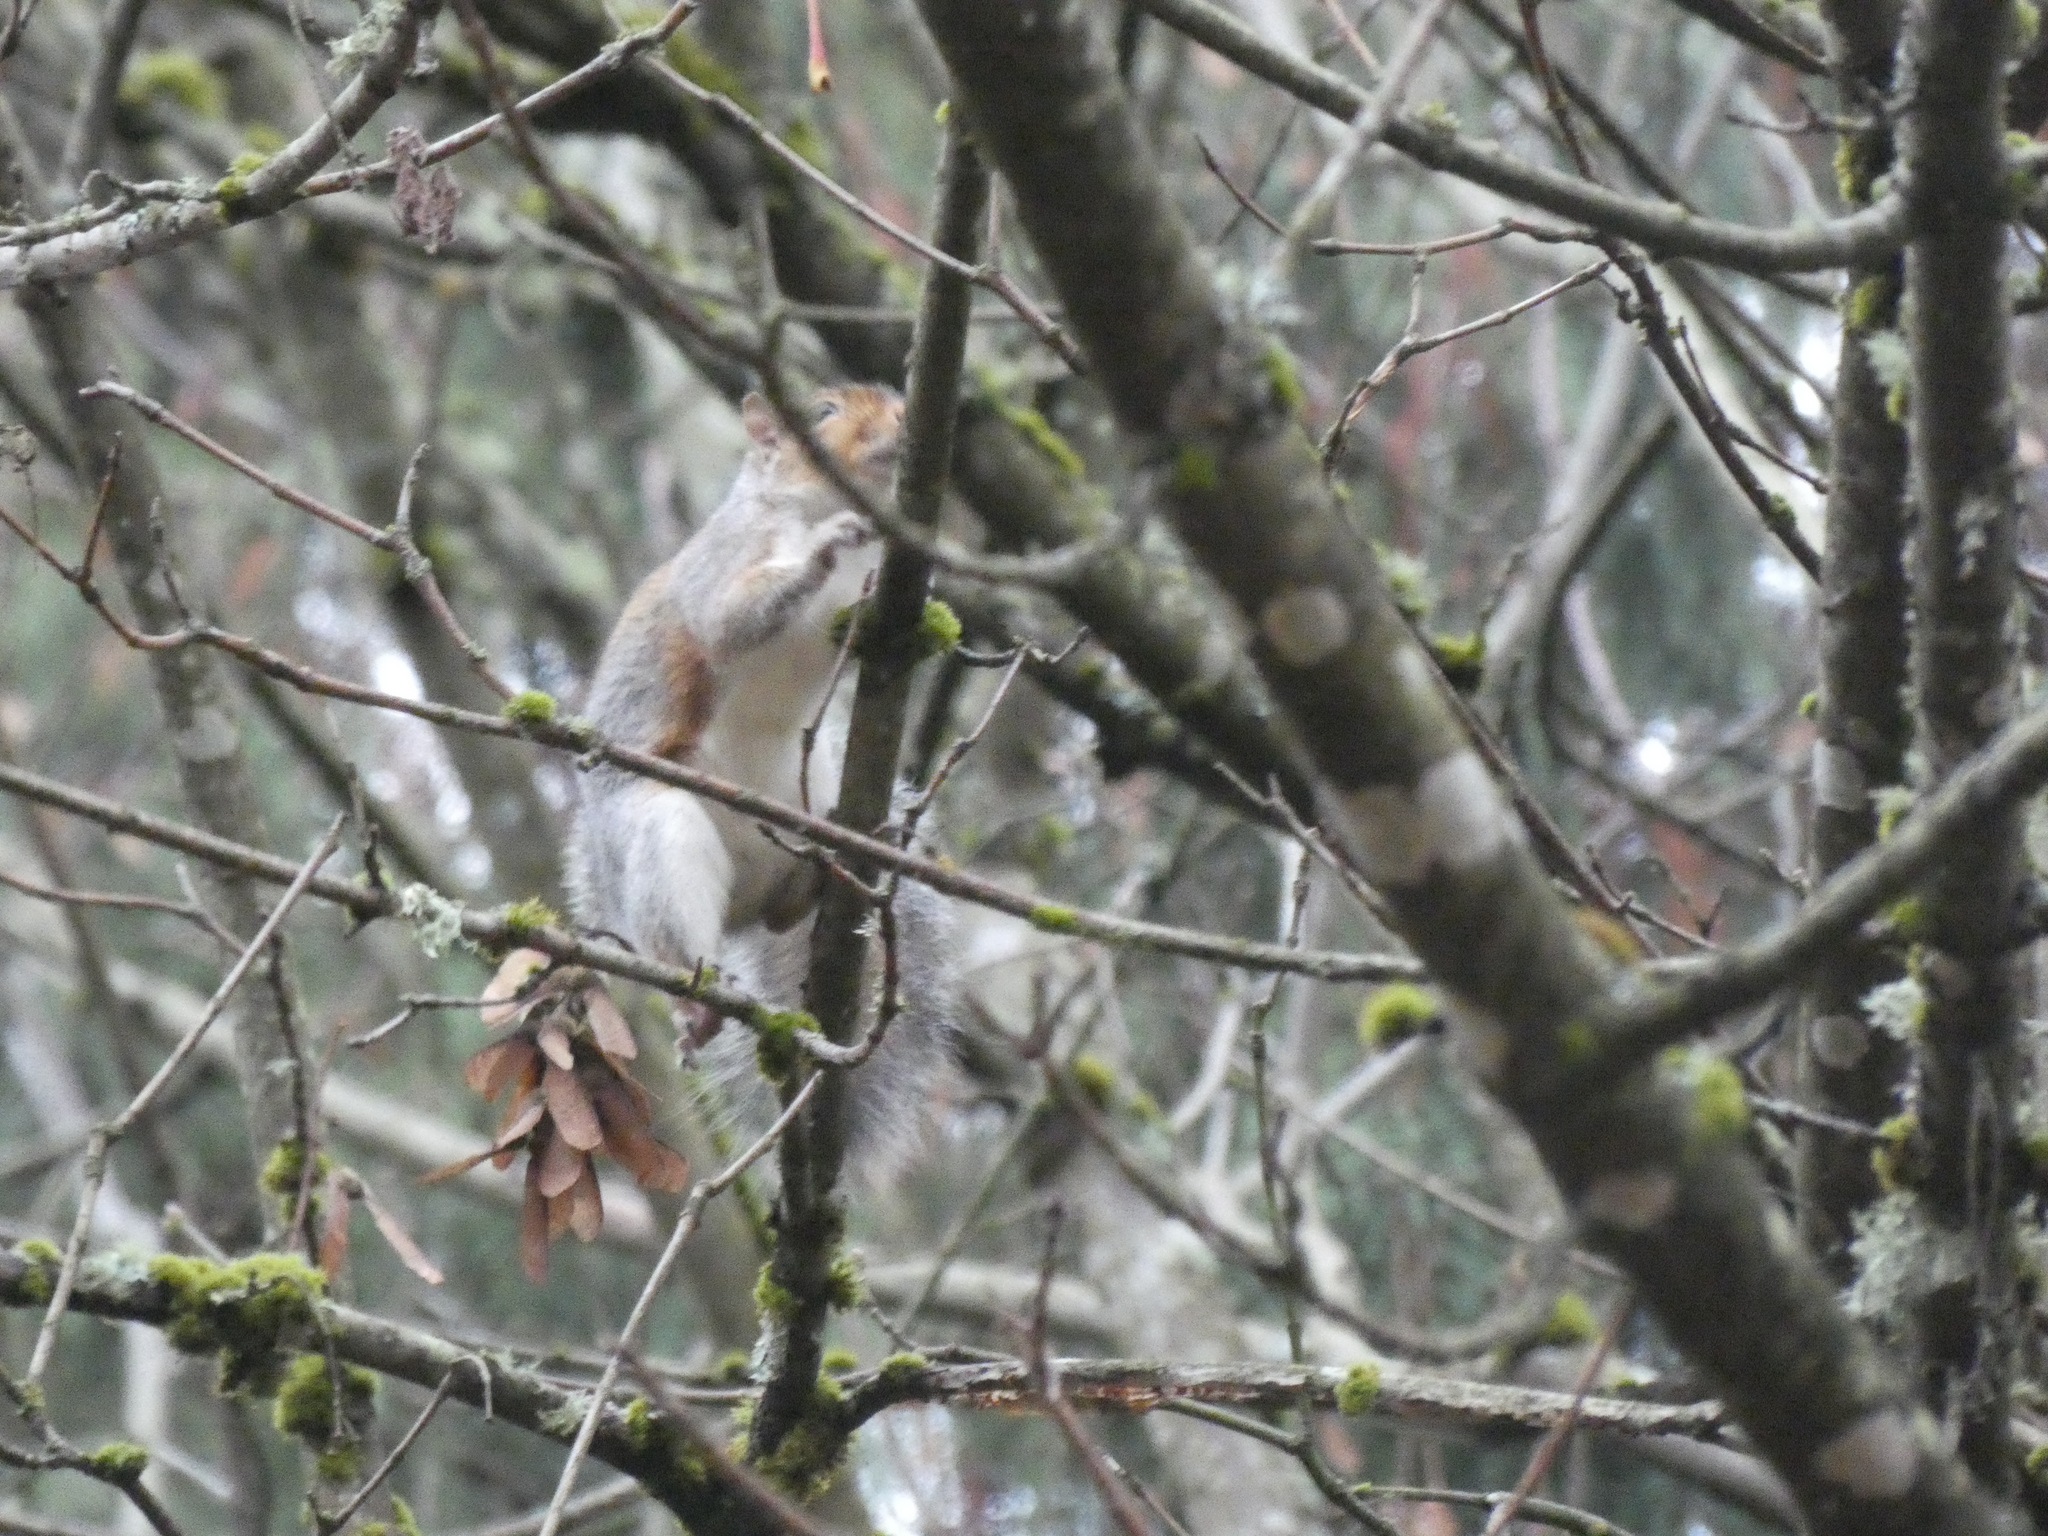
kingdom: Animalia
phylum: Chordata
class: Mammalia
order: Rodentia
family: Sciuridae
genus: Sciurus
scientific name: Sciurus carolinensis
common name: Eastern gray squirrel
